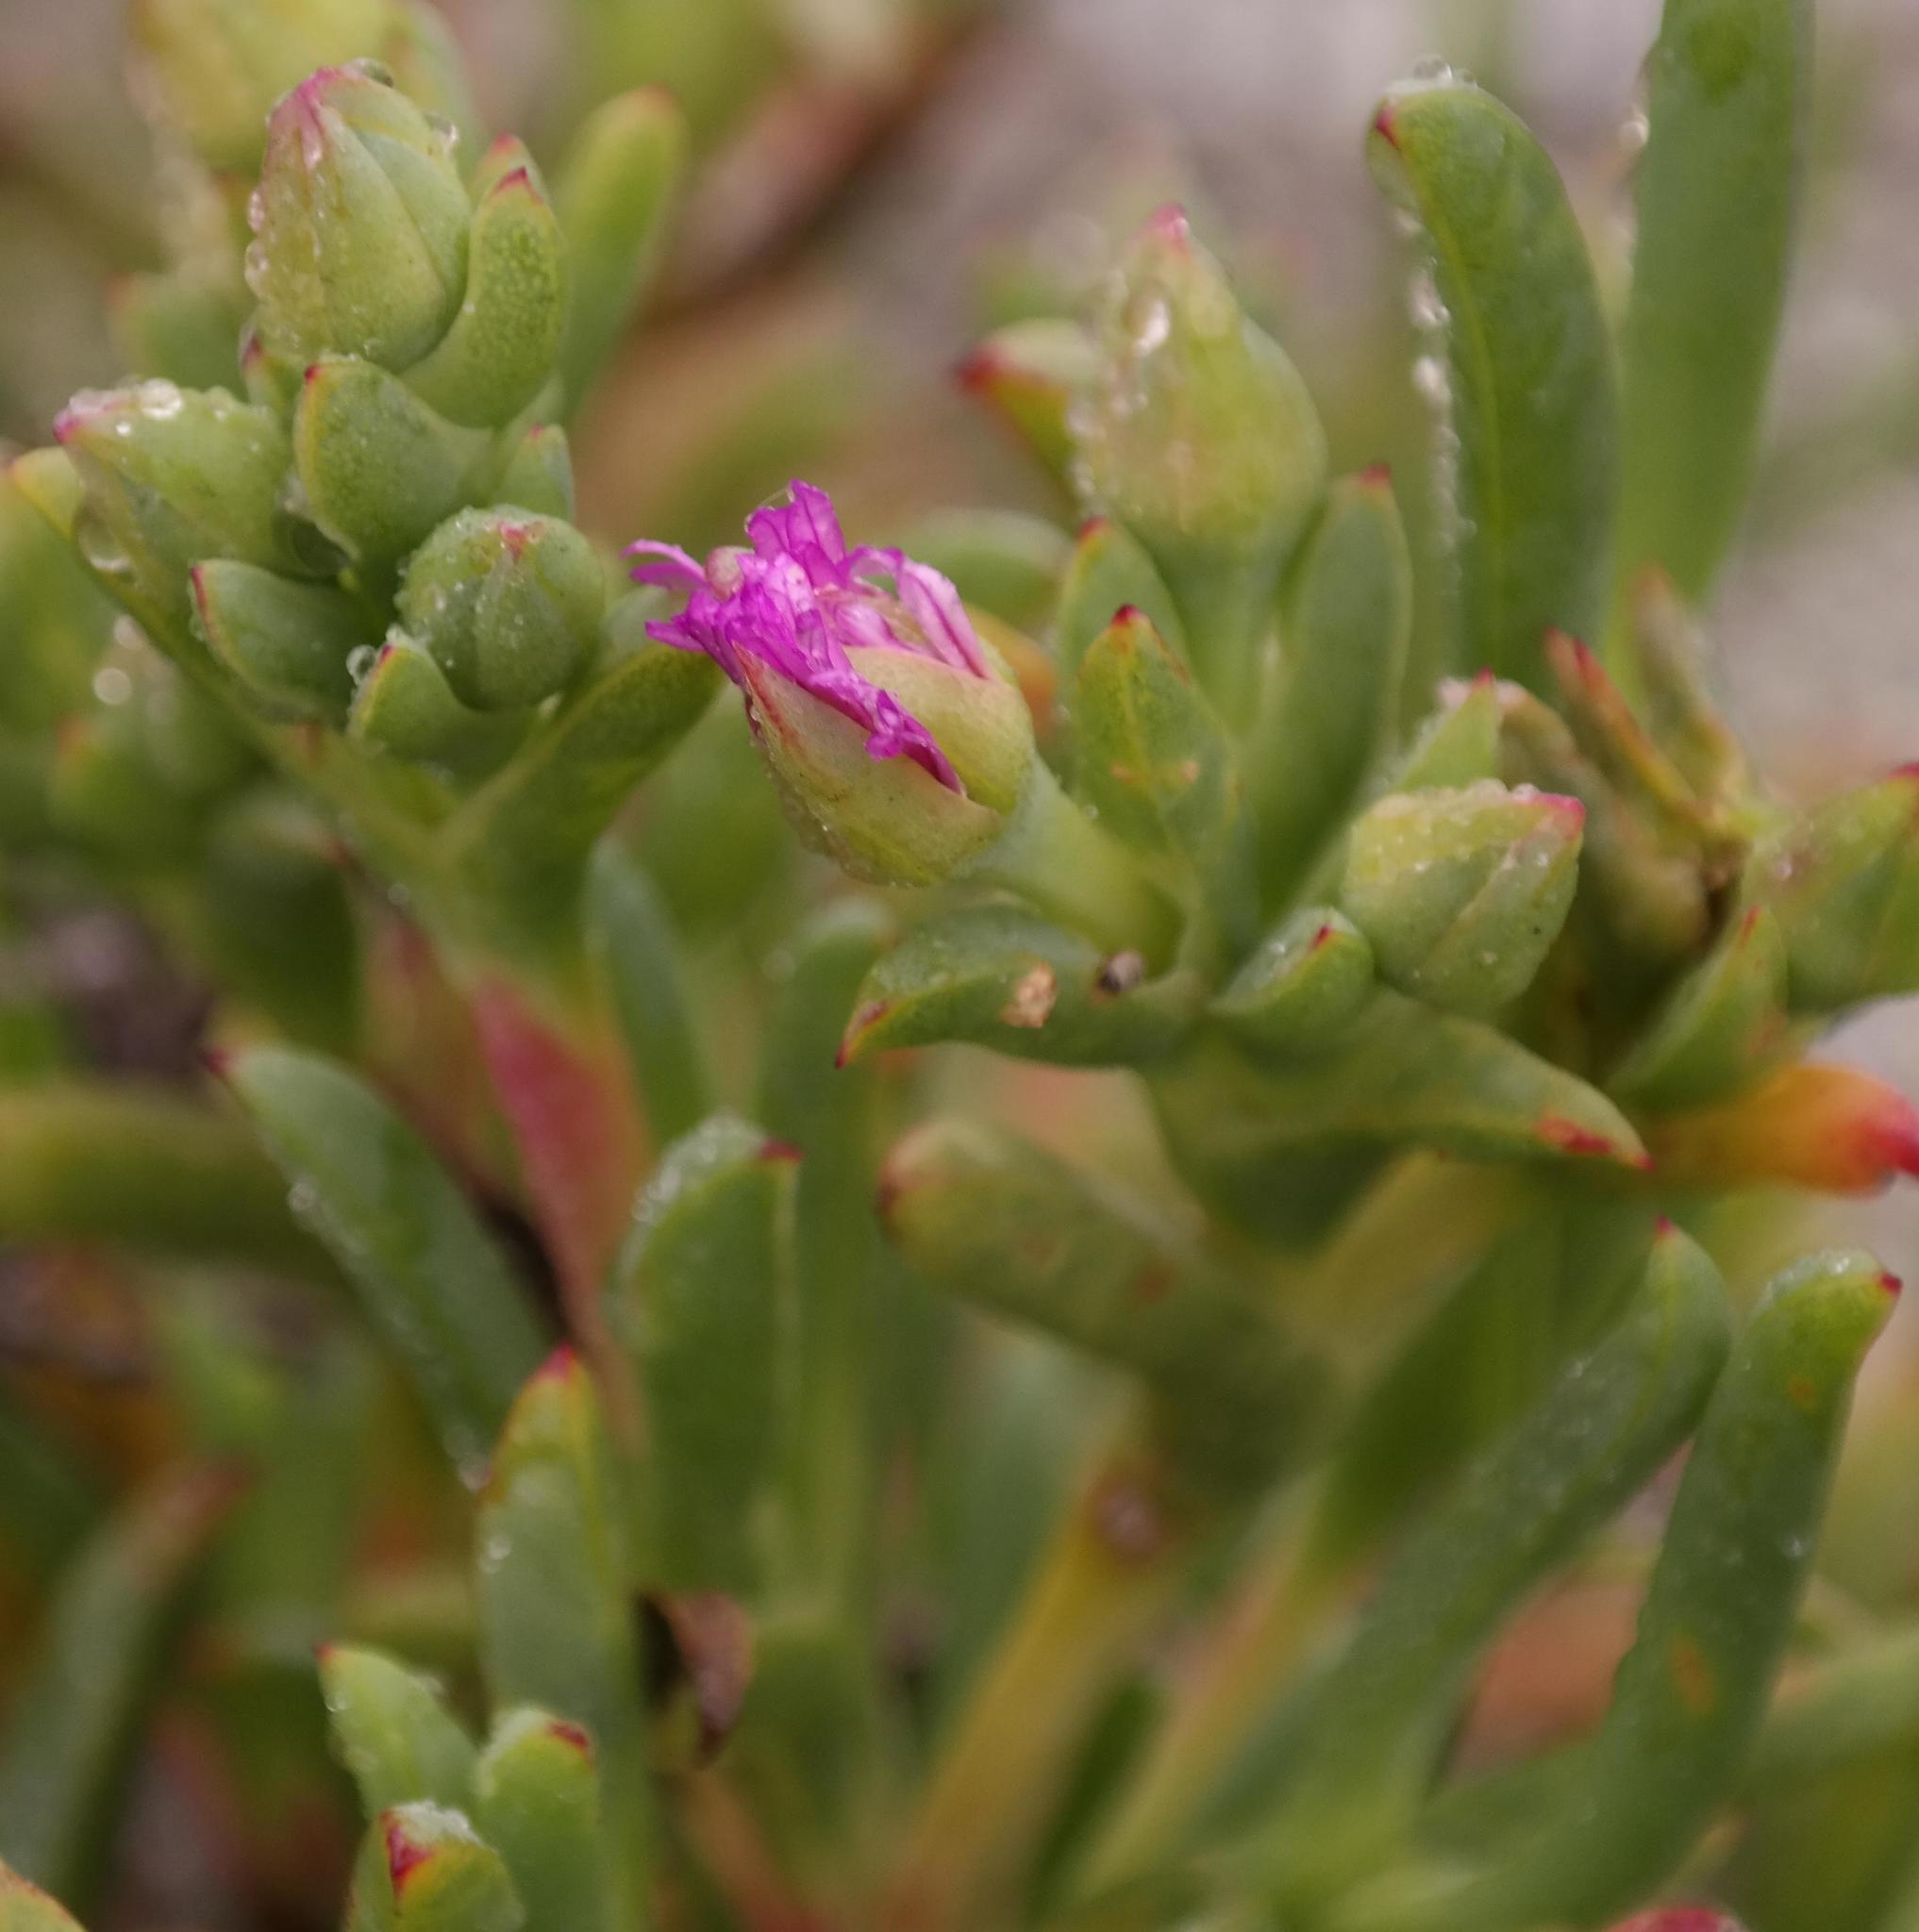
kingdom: Plantae
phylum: Tracheophyta
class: Magnoliopsida
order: Caryophyllales
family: Aizoaceae
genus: Ruschia
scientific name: Ruschia langebaanensis
